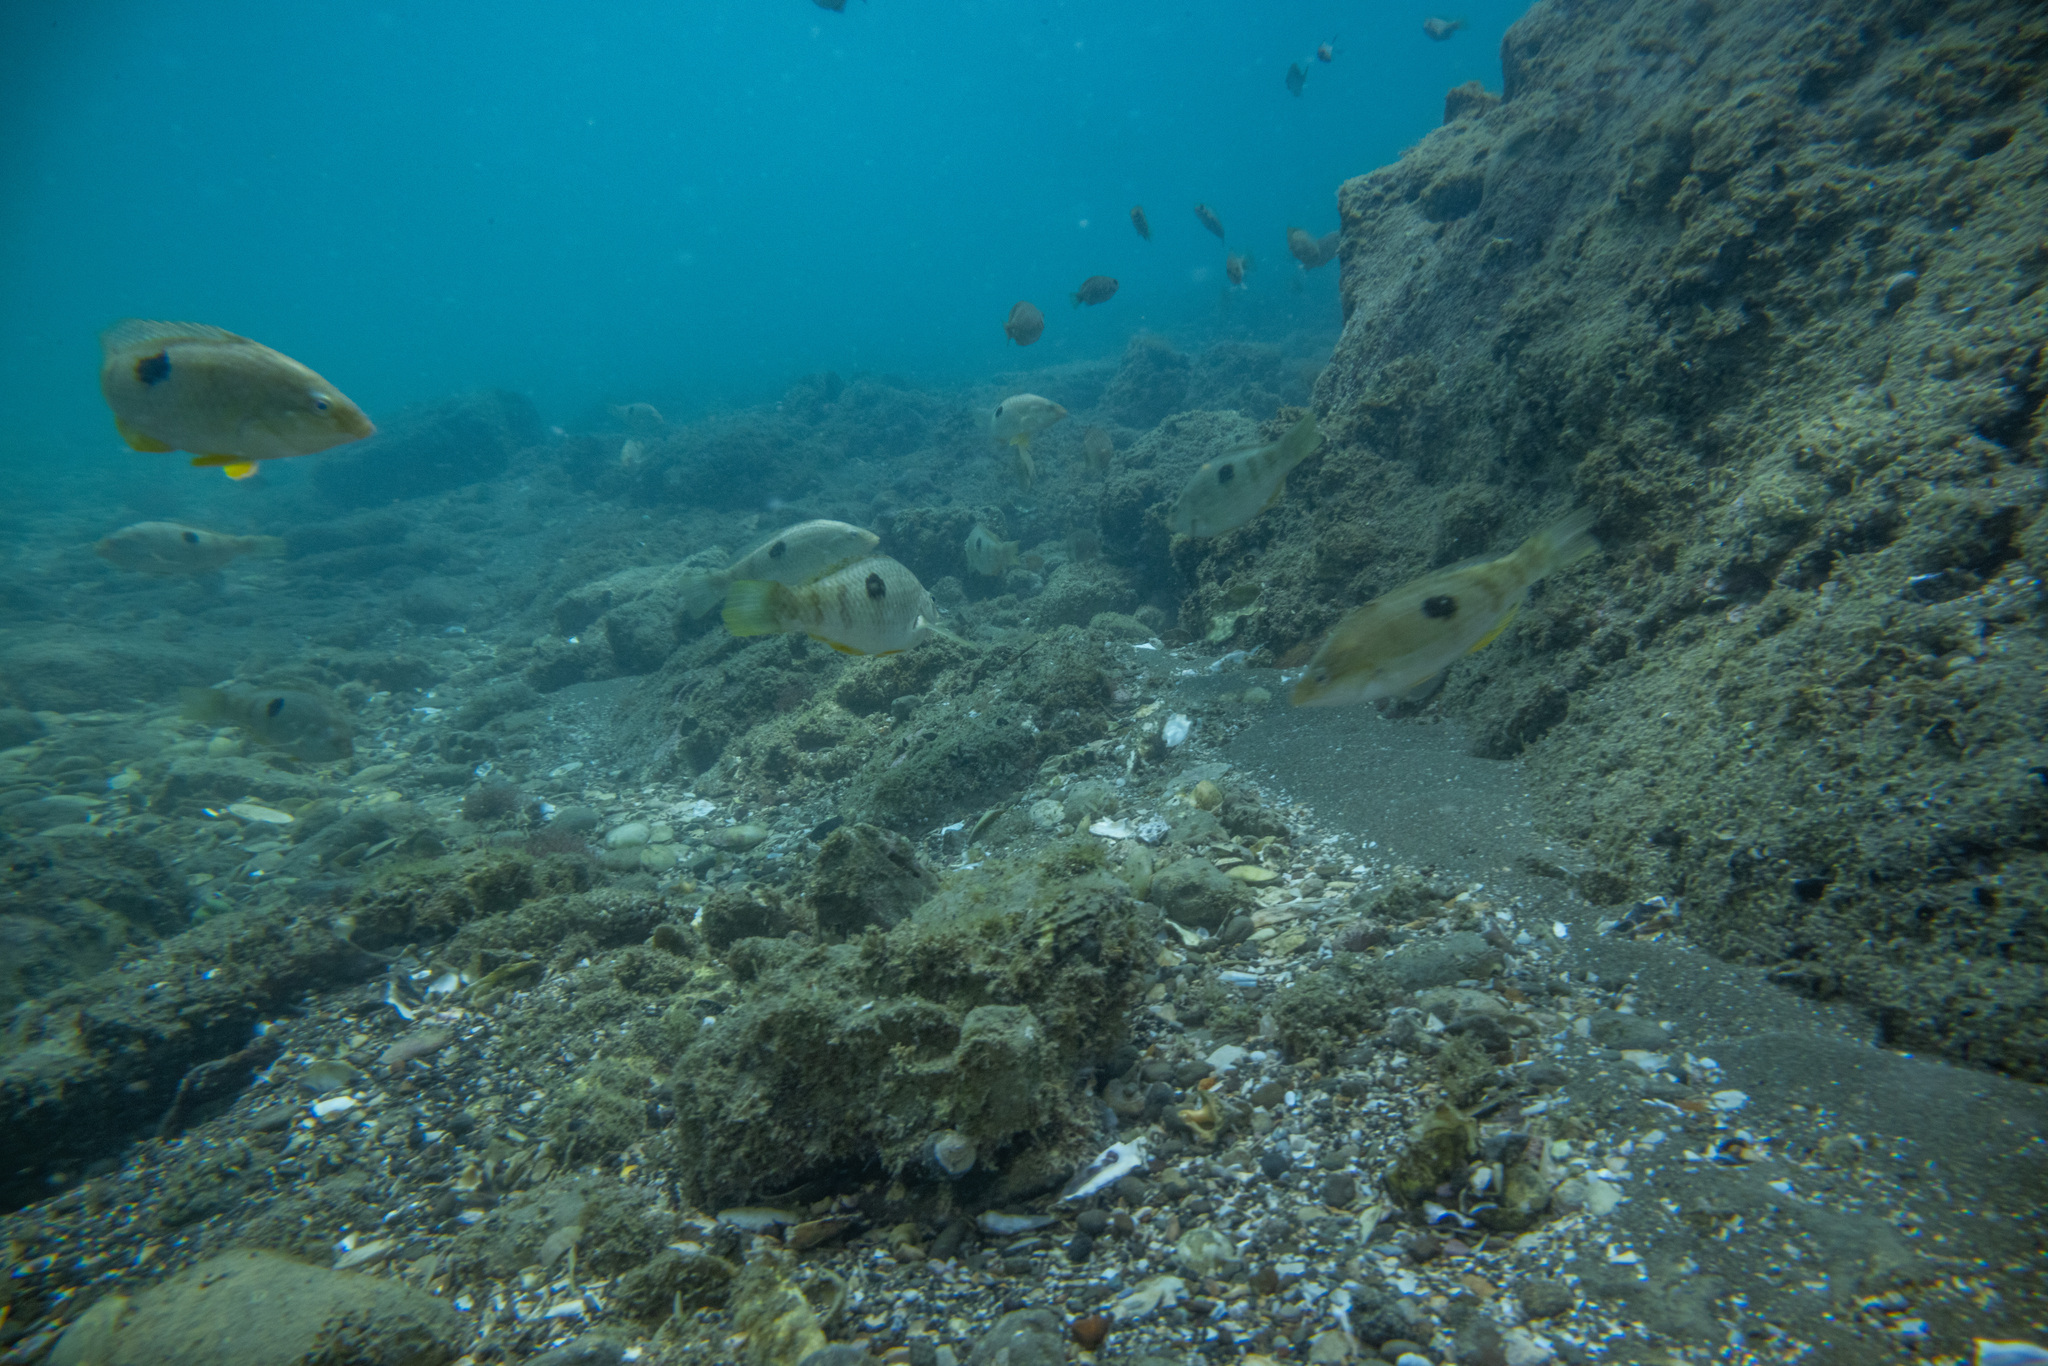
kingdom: Animalia
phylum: Chordata
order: Perciformes
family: Labridae
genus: Notolabrus
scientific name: Notolabrus celidotus
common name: Spotty
